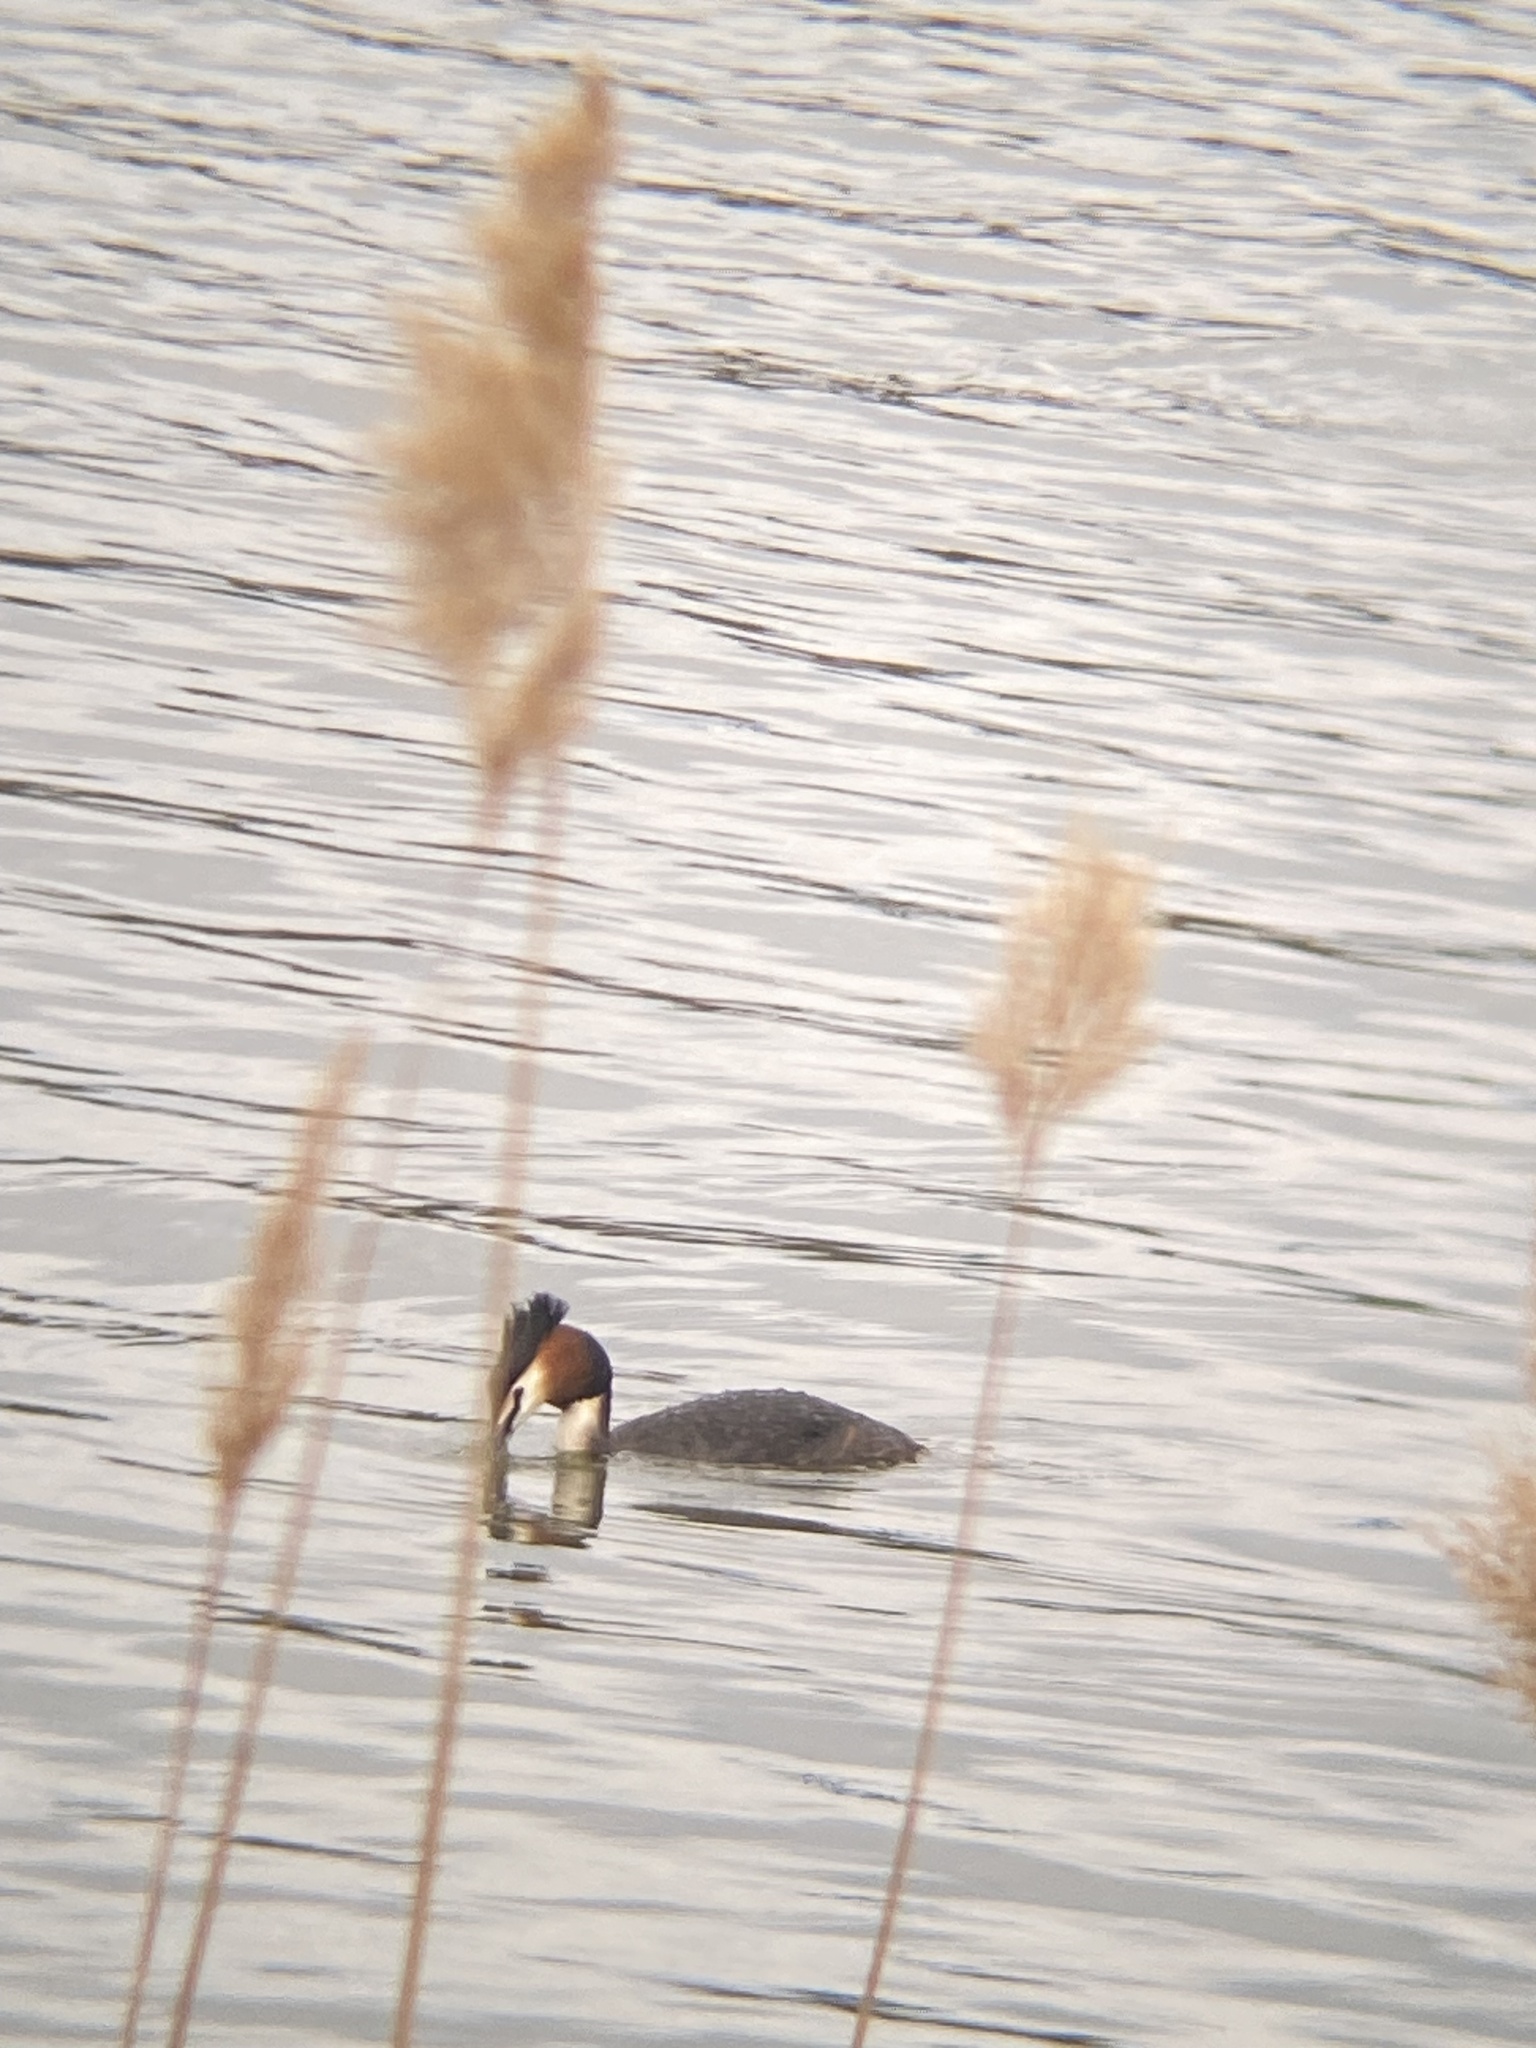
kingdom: Animalia
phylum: Chordata
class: Aves
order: Podicipediformes
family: Podicipedidae
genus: Podiceps
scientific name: Podiceps cristatus
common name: Great crested grebe
